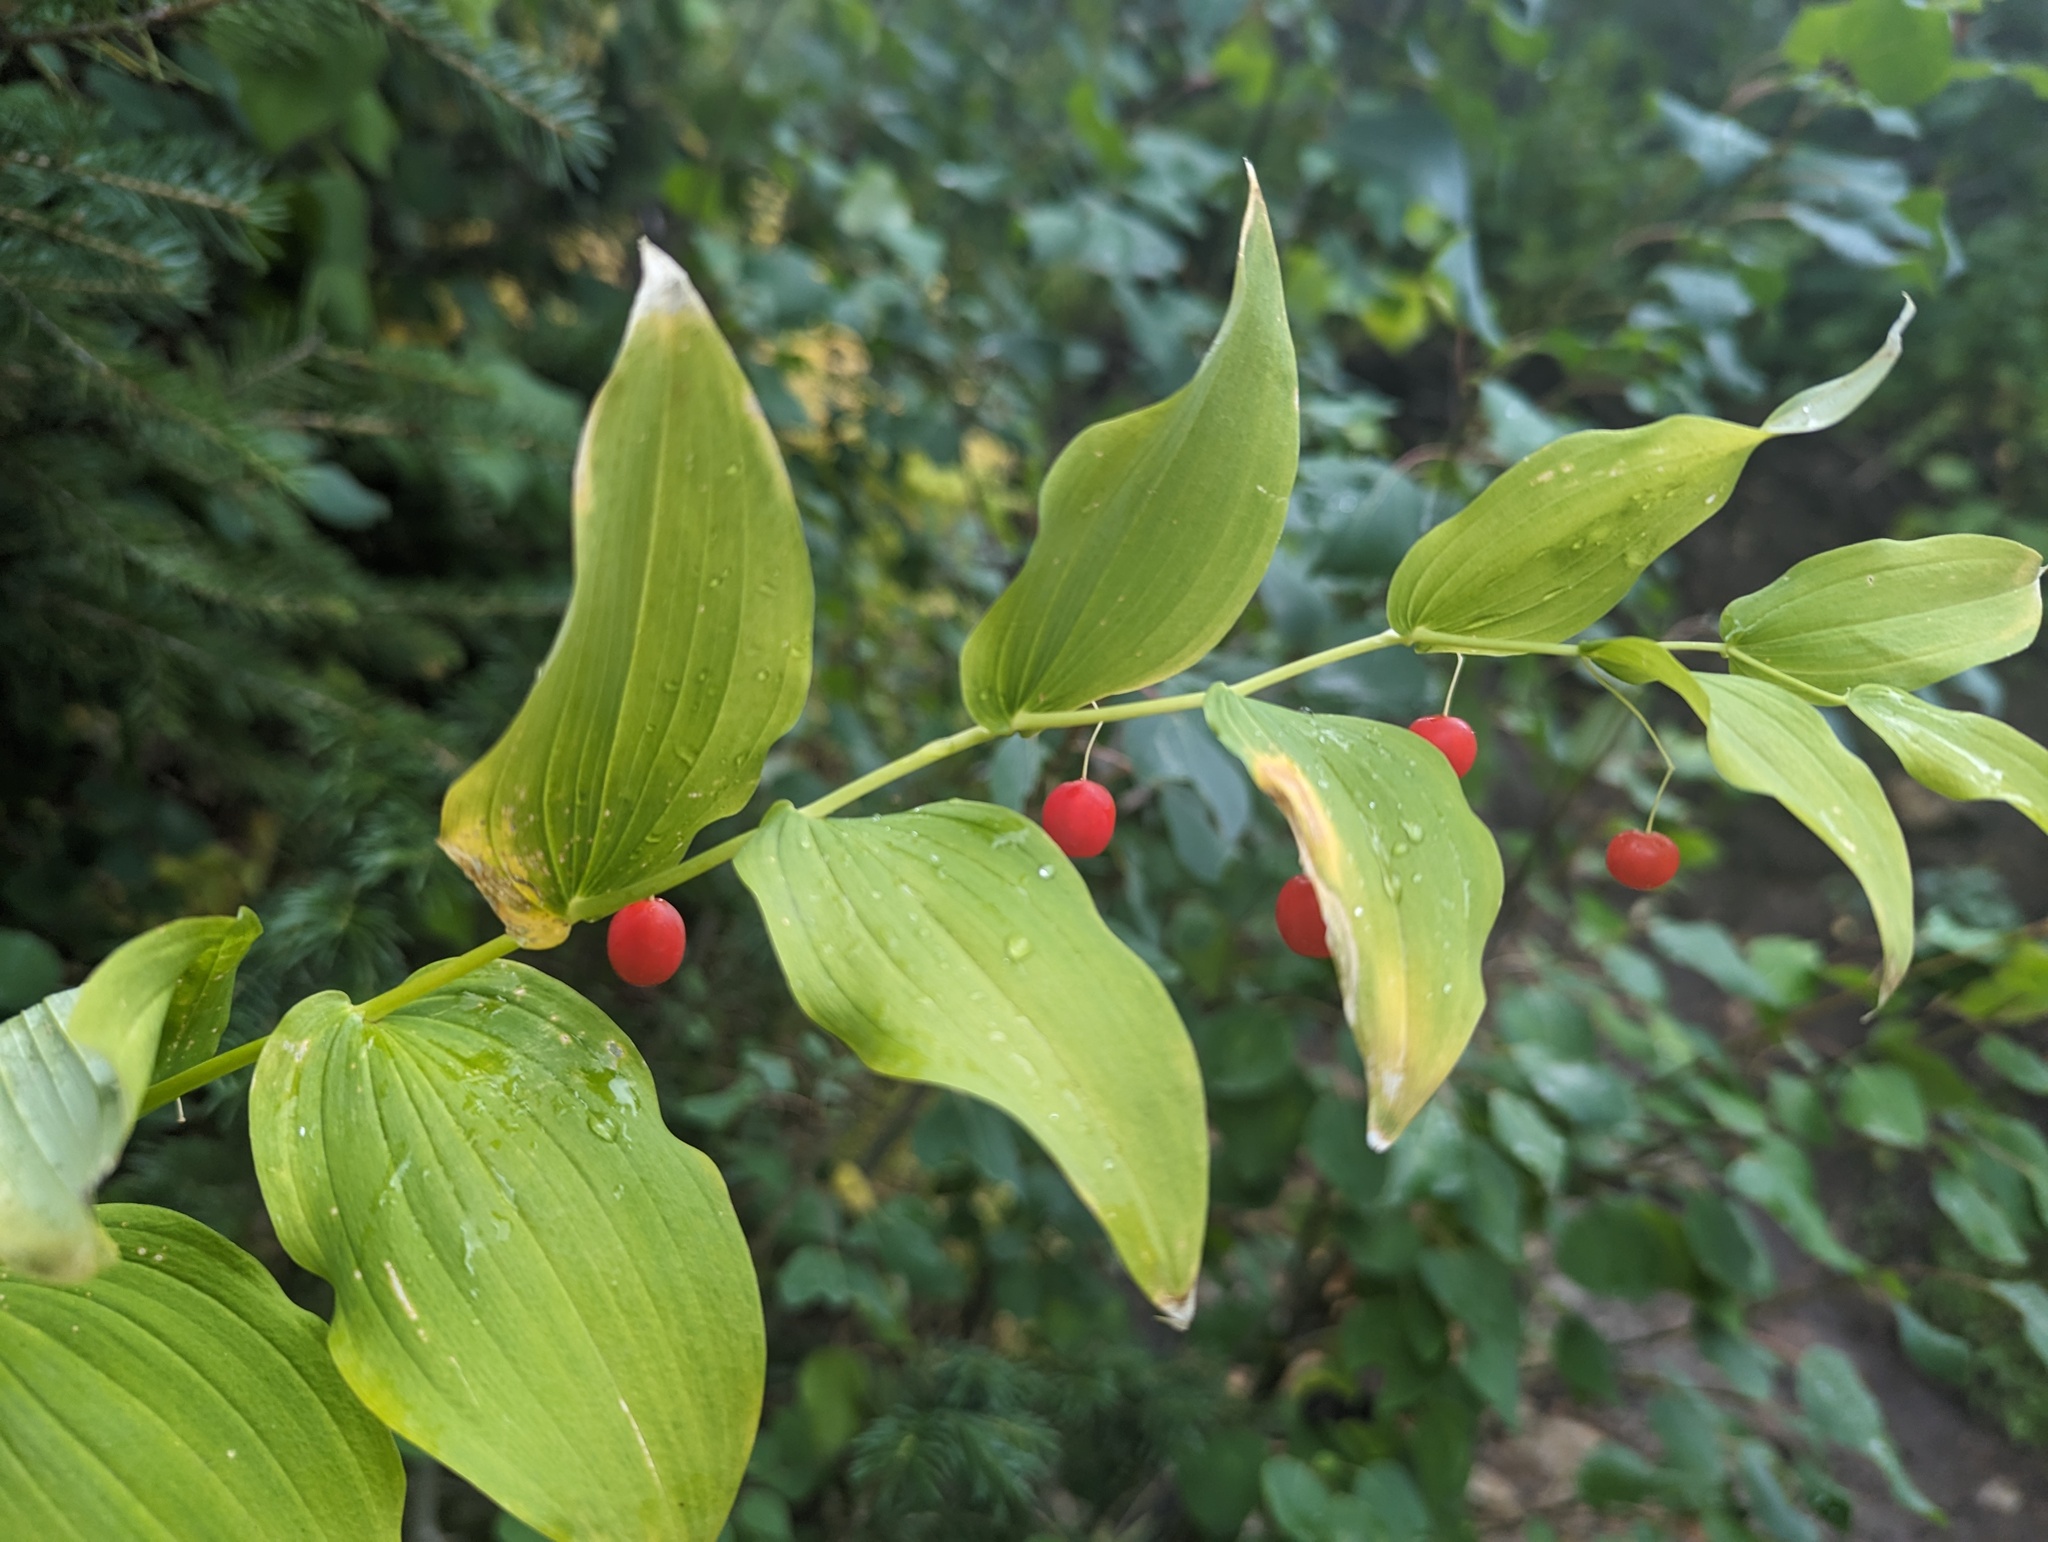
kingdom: Plantae
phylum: Tracheophyta
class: Liliopsida
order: Liliales
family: Liliaceae
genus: Streptopus
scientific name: Streptopus amplexifolius
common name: Clasp twisted stalk
